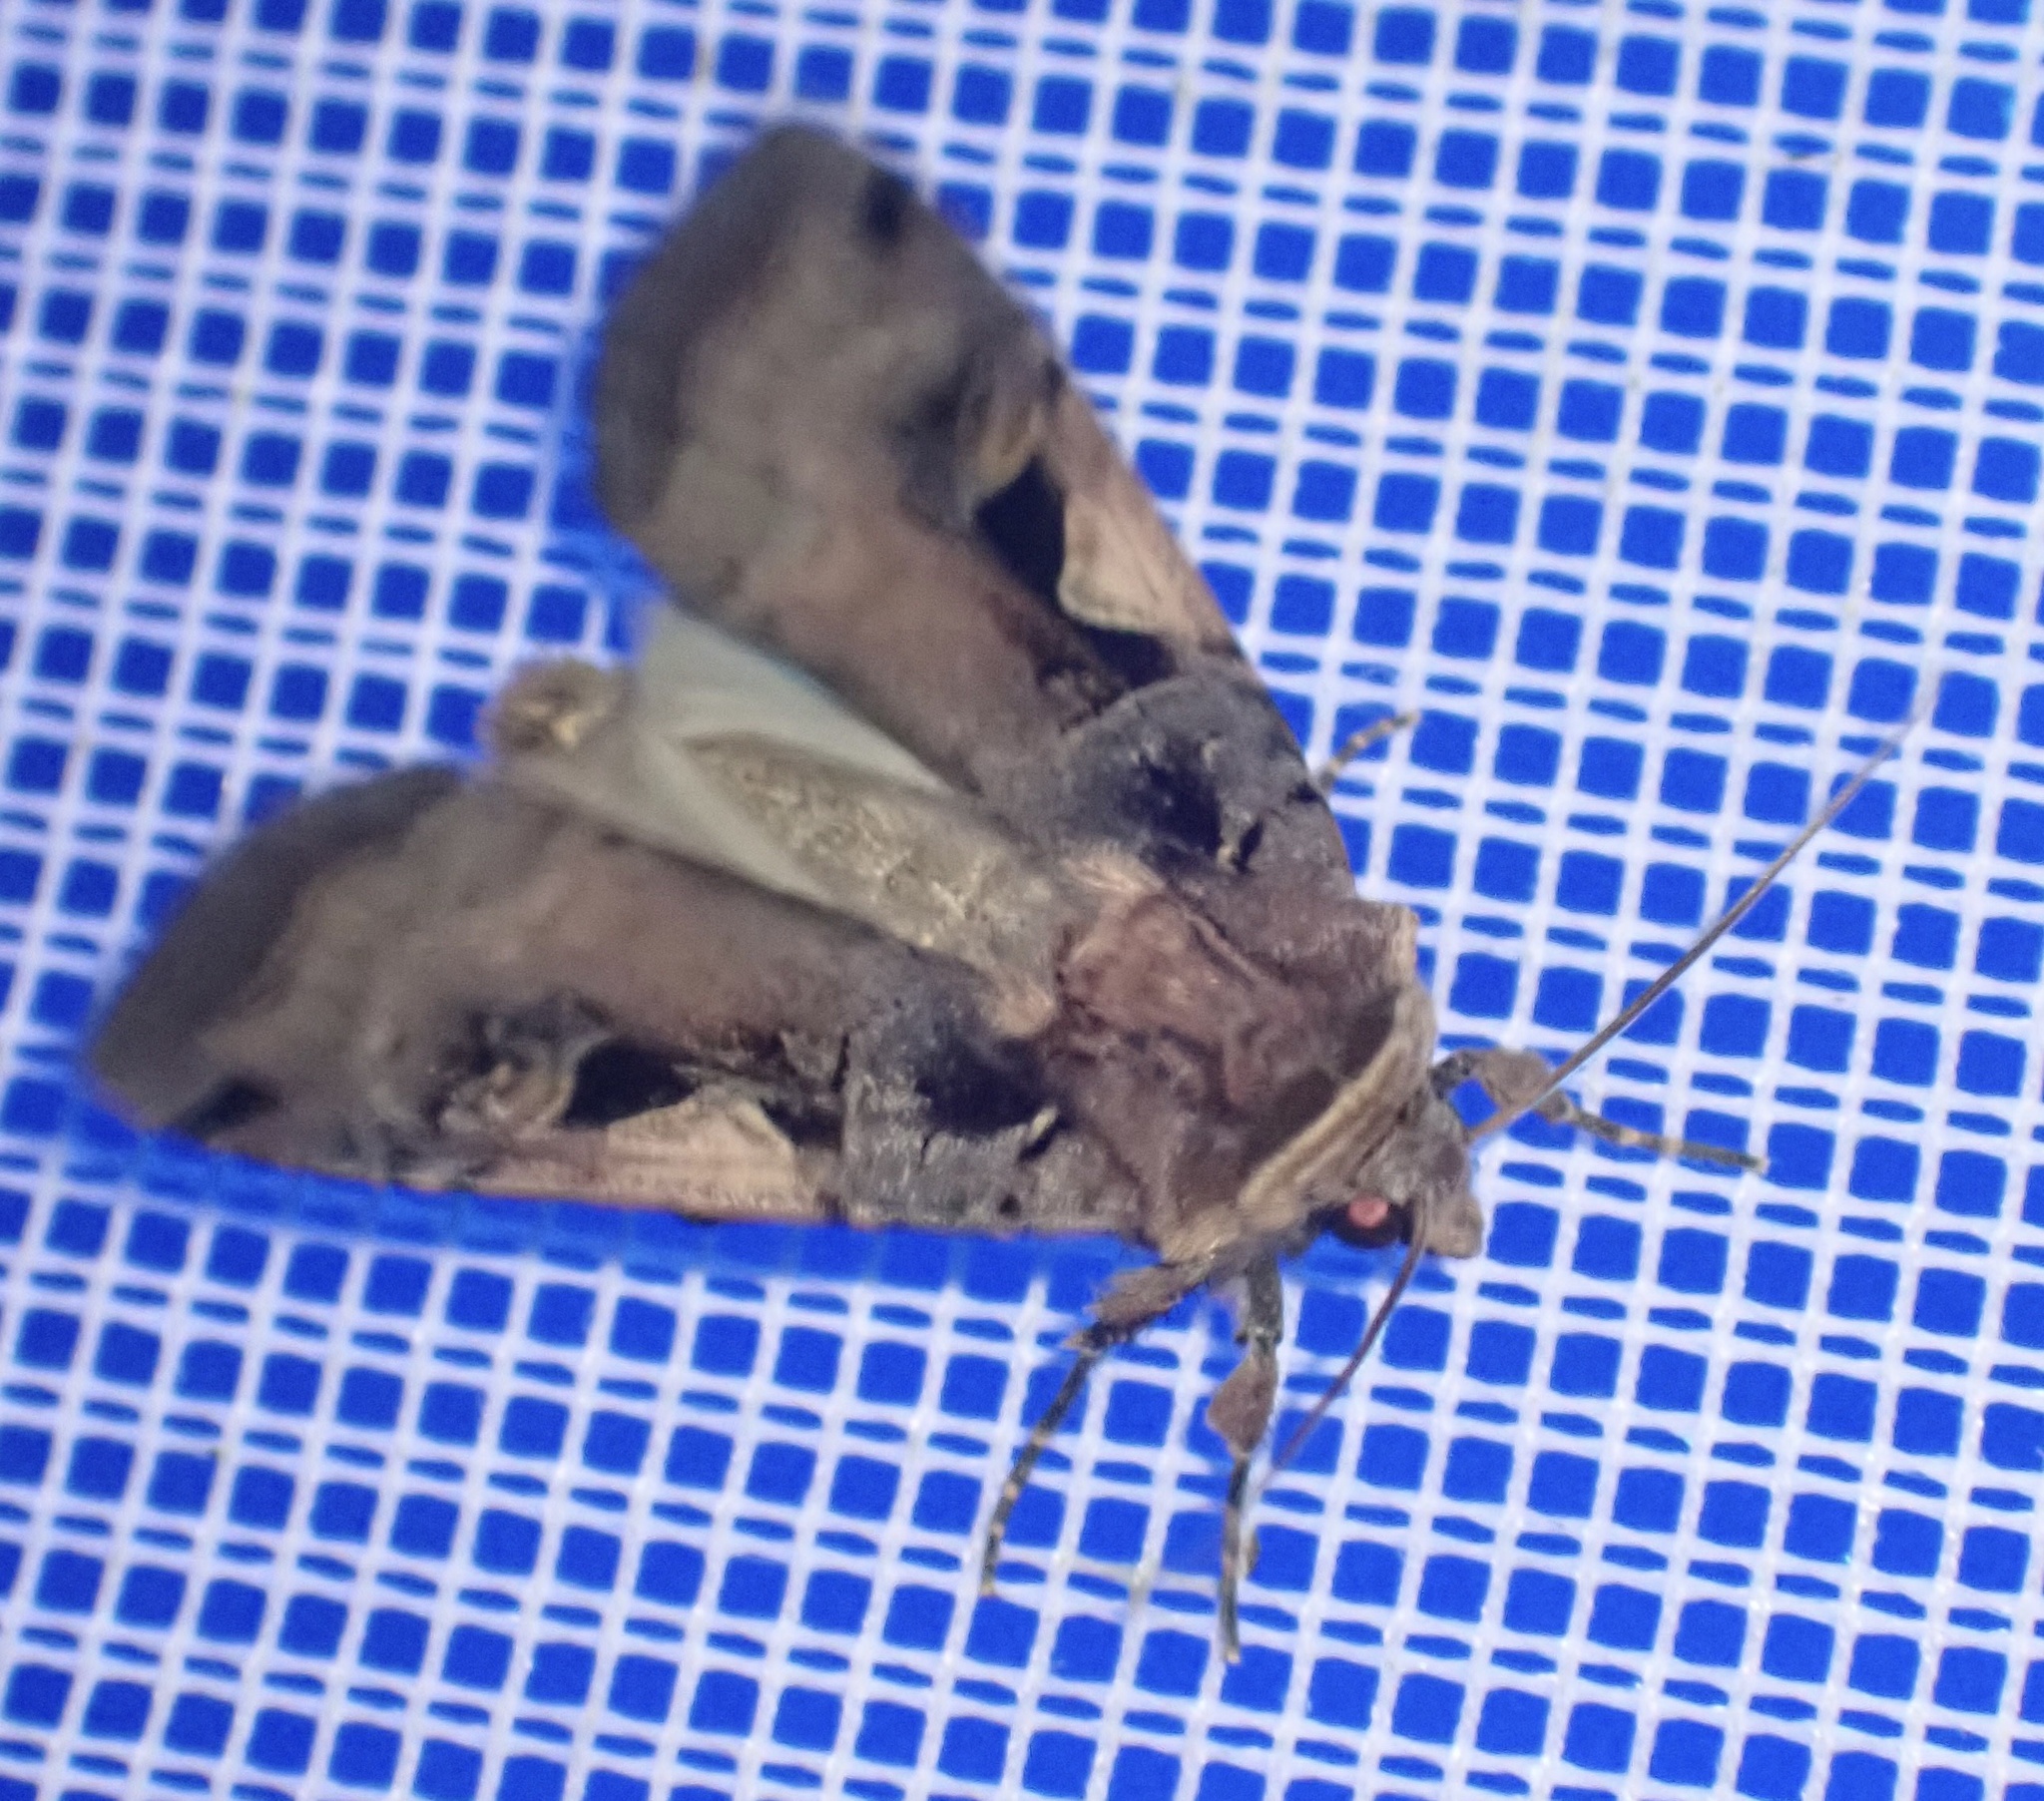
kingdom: Animalia
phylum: Arthropoda
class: Insecta
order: Lepidoptera
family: Noctuidae
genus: Xestia
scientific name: Xestia c-nigrum
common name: Setaceous hebrew character
